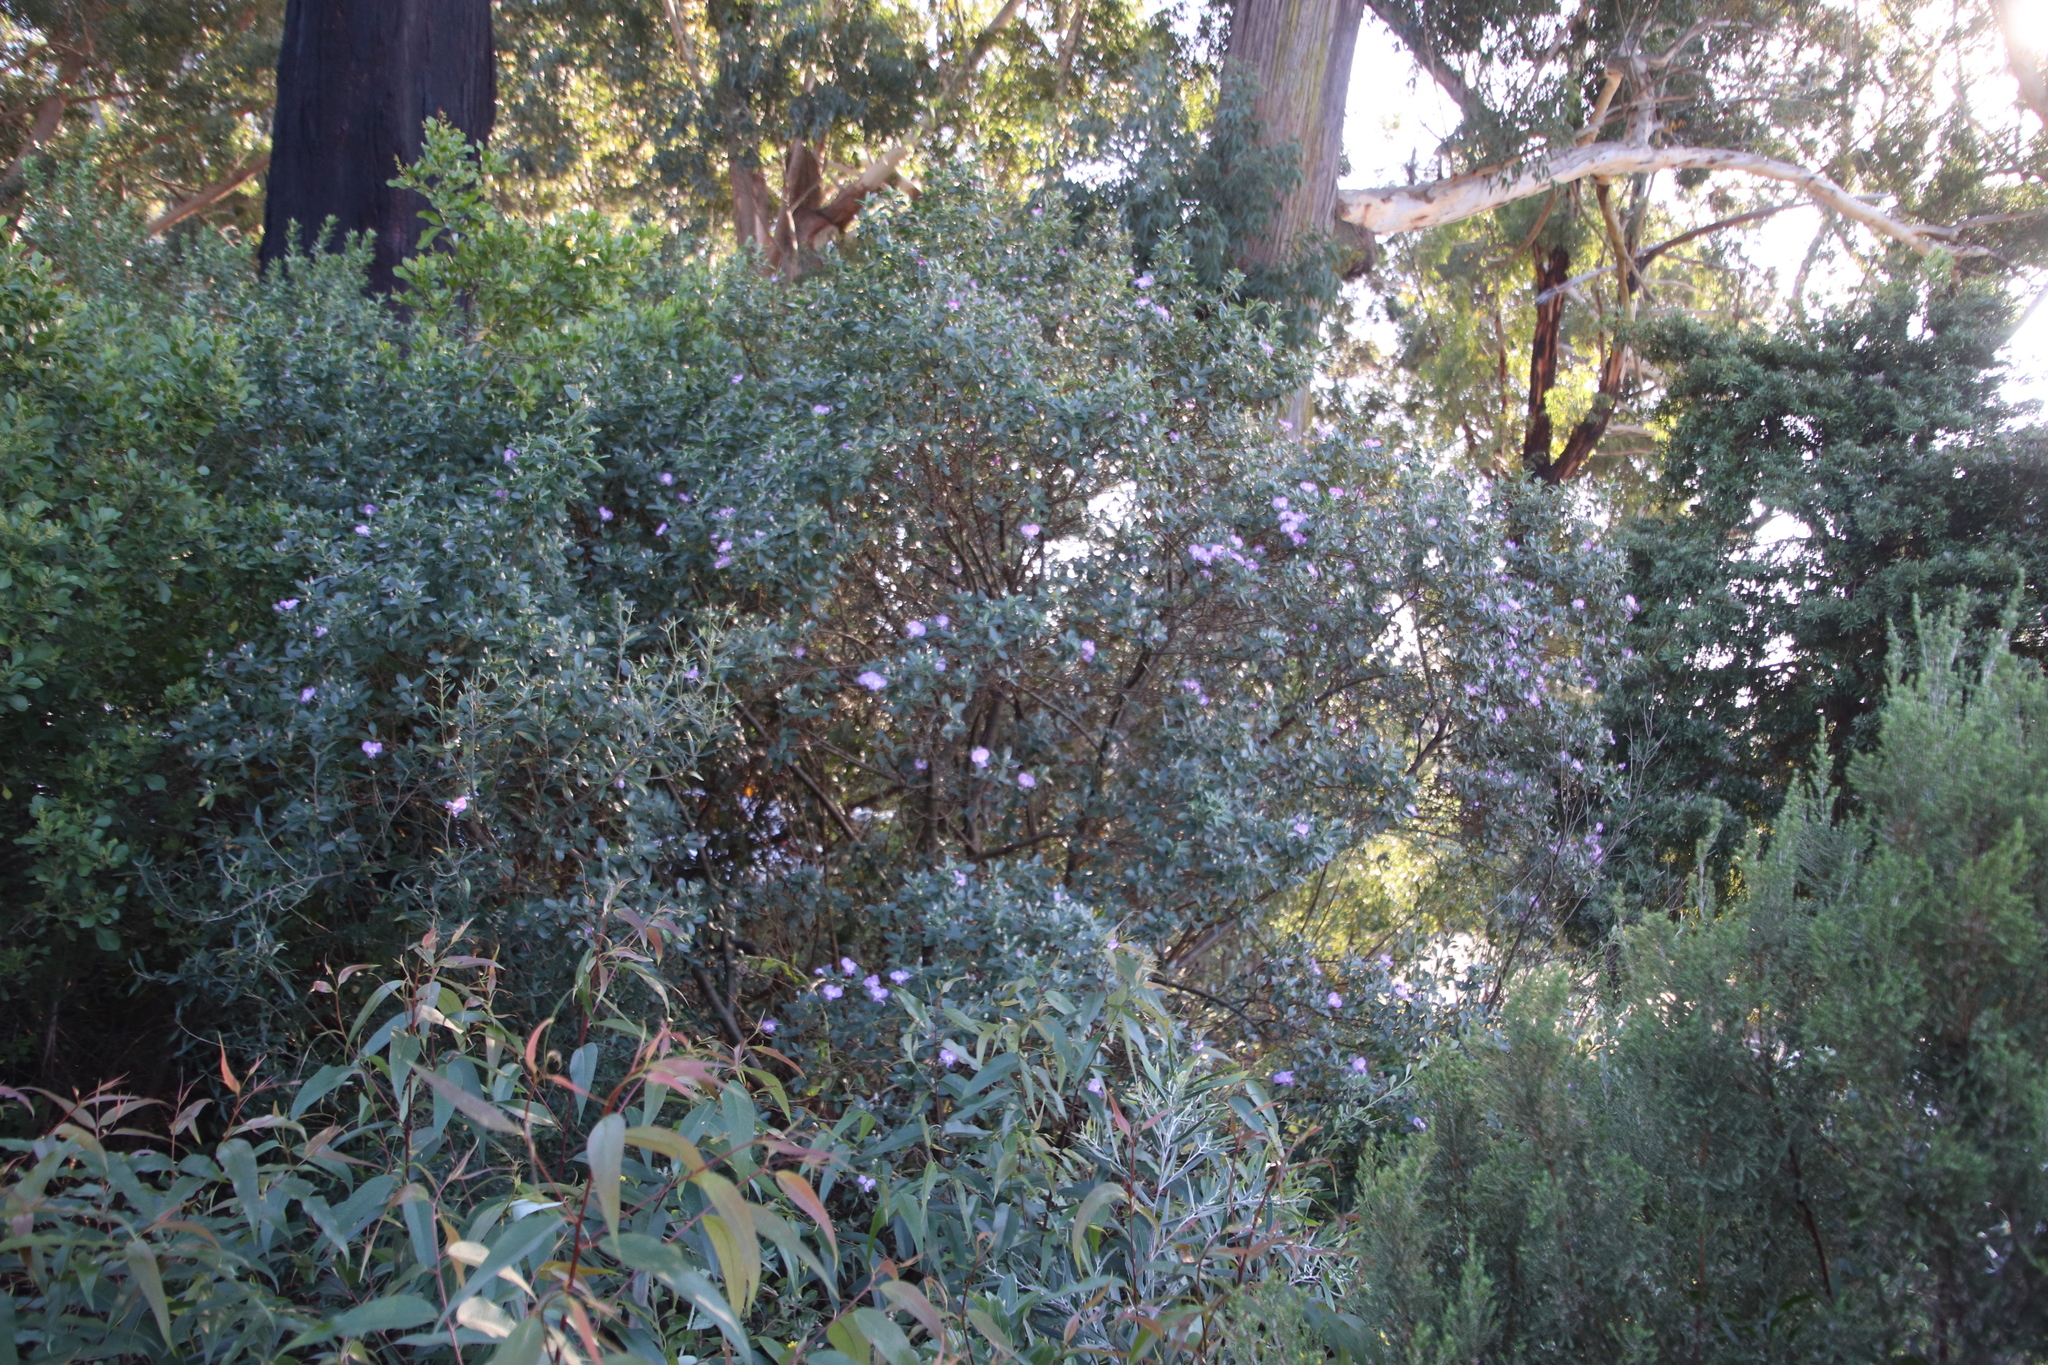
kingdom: Plantae
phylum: Tracheophyta
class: Magnoliopsida
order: Fabales
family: Fabaceae
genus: Podalyria
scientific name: Podalyria calyptrata
